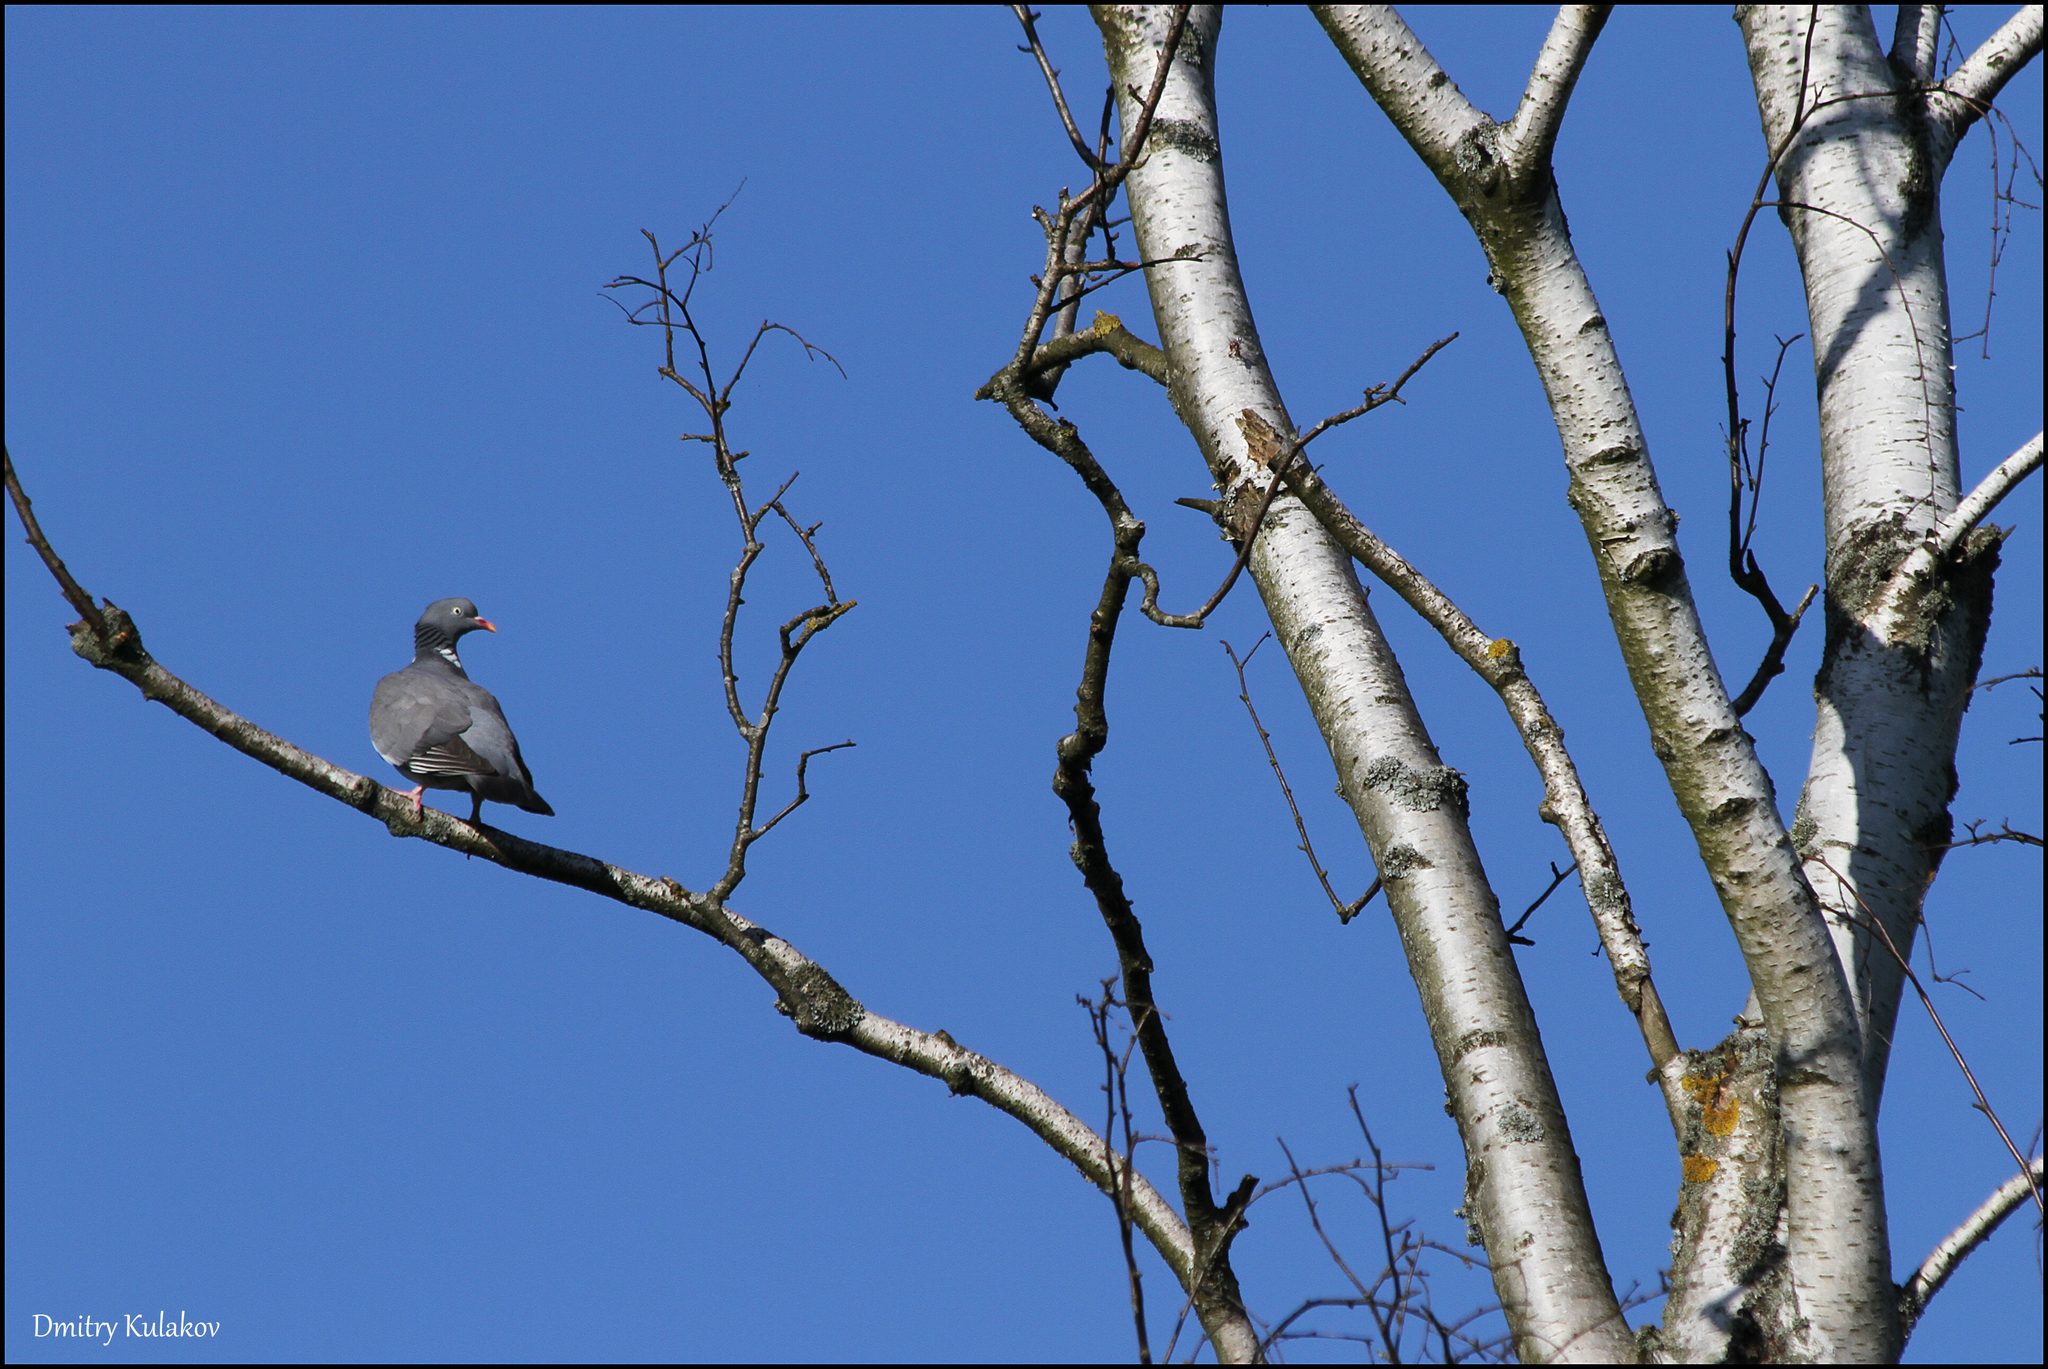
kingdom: Animalia
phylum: Chordata
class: Aves
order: Columbiformes
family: Columbidae
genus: Columba
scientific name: Columba palumbus
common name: Common wood pigeon
